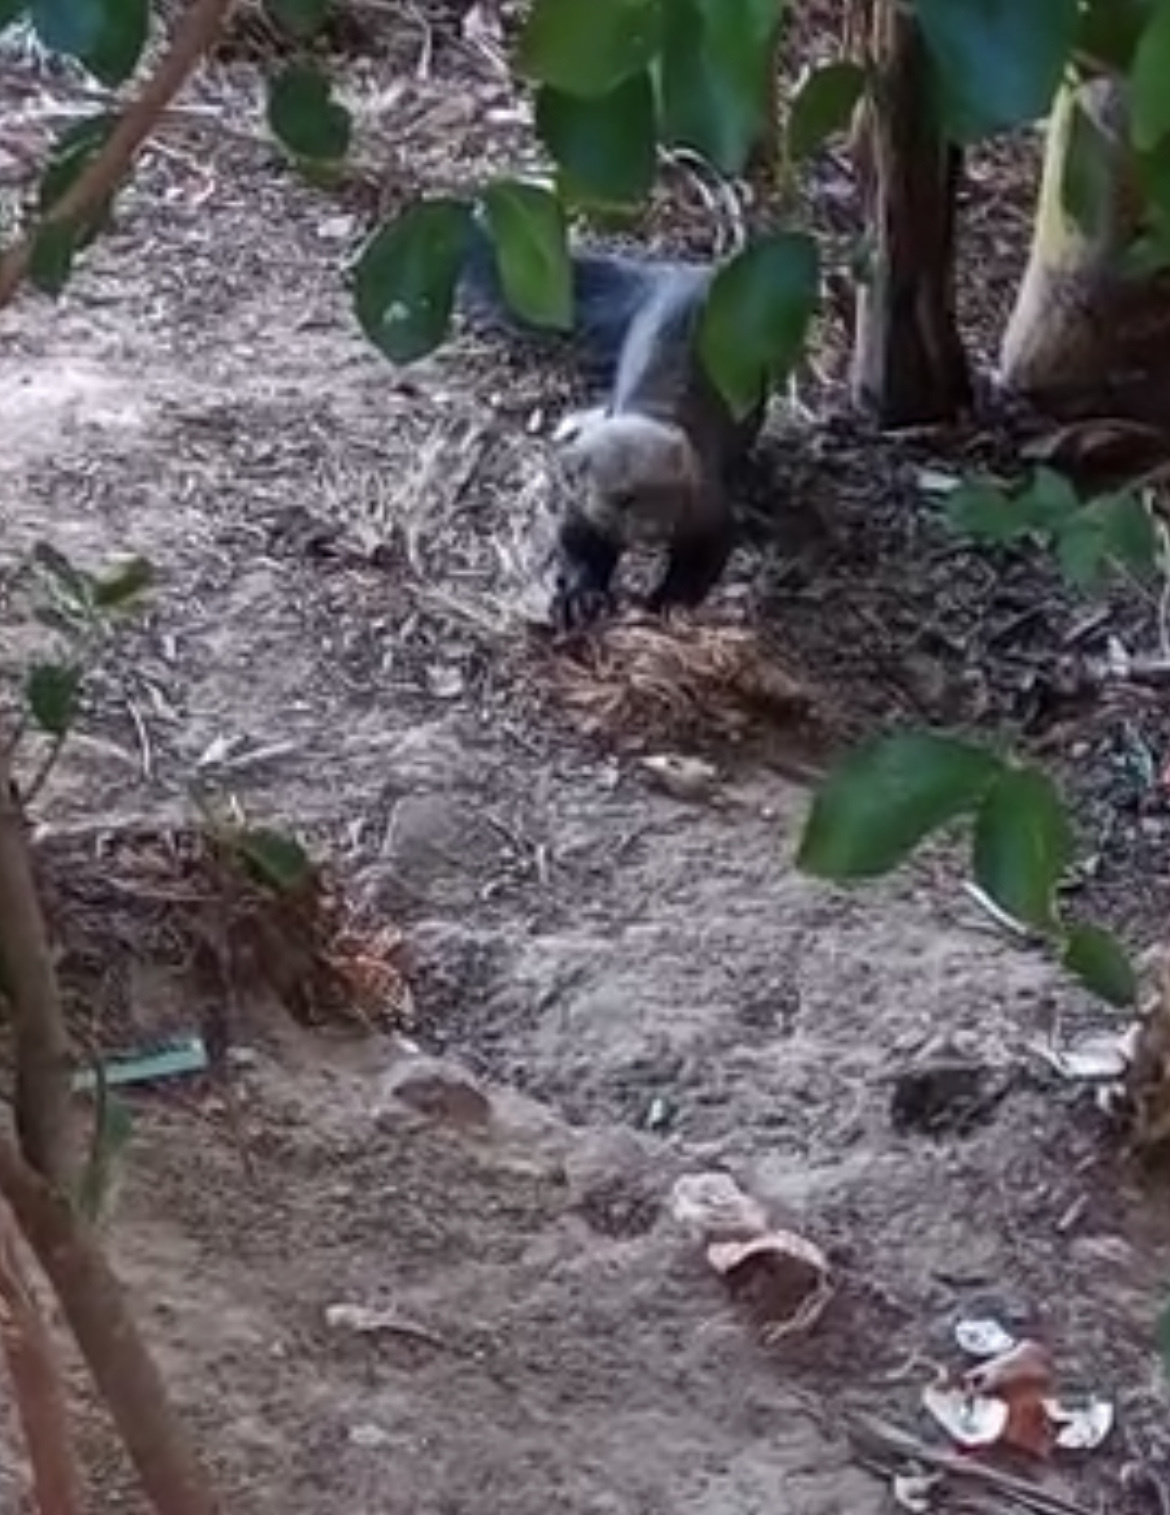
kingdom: Animalia
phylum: Chordata
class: Mammalia
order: Carnivora
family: Mustelidae
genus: Eira
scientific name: Eira barbara
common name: Tayra
